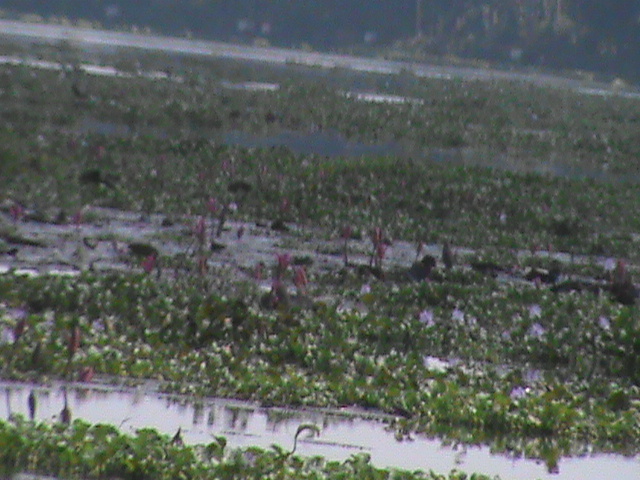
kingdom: Plantae
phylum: Tracheophyta
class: Liliopsida
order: Commelinales
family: Pontederiaceae
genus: Pontederia
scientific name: Pontederia crassipes
